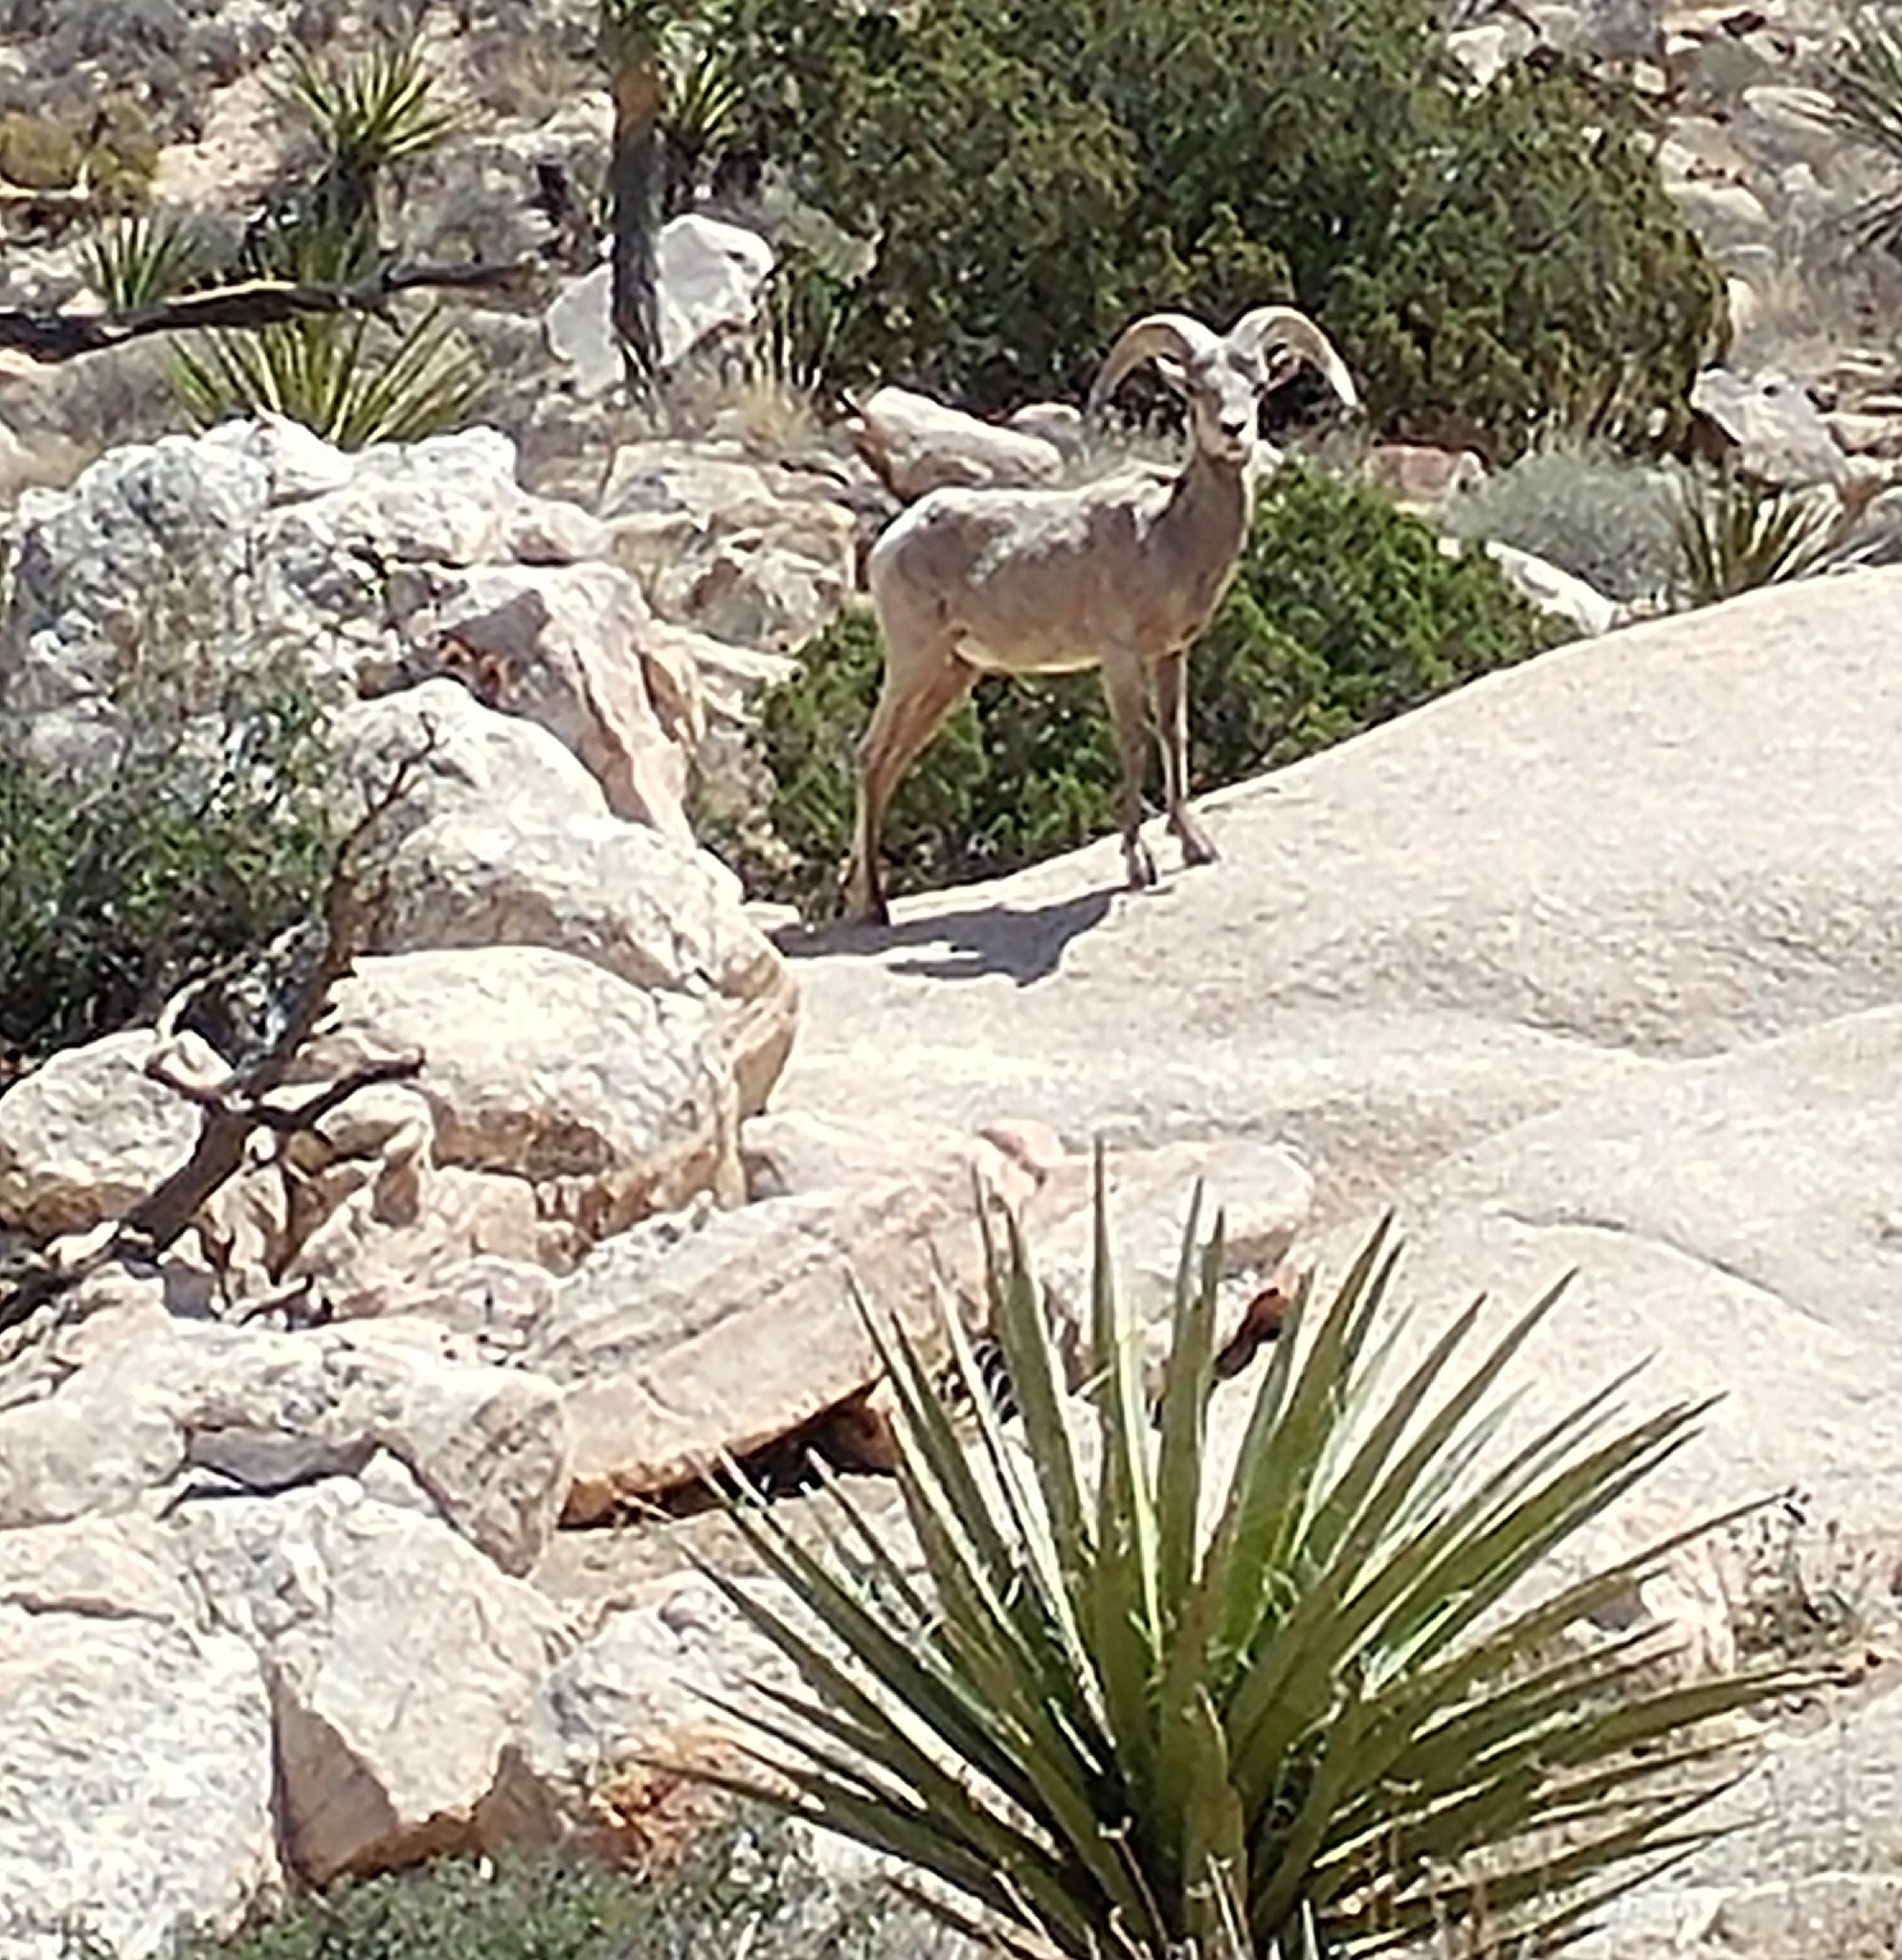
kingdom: Animalia
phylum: Chordata
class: Mammalia
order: Artiodactyla
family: Bovidae
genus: Ovis
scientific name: Ovis canadensis
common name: Bighorn sheep
